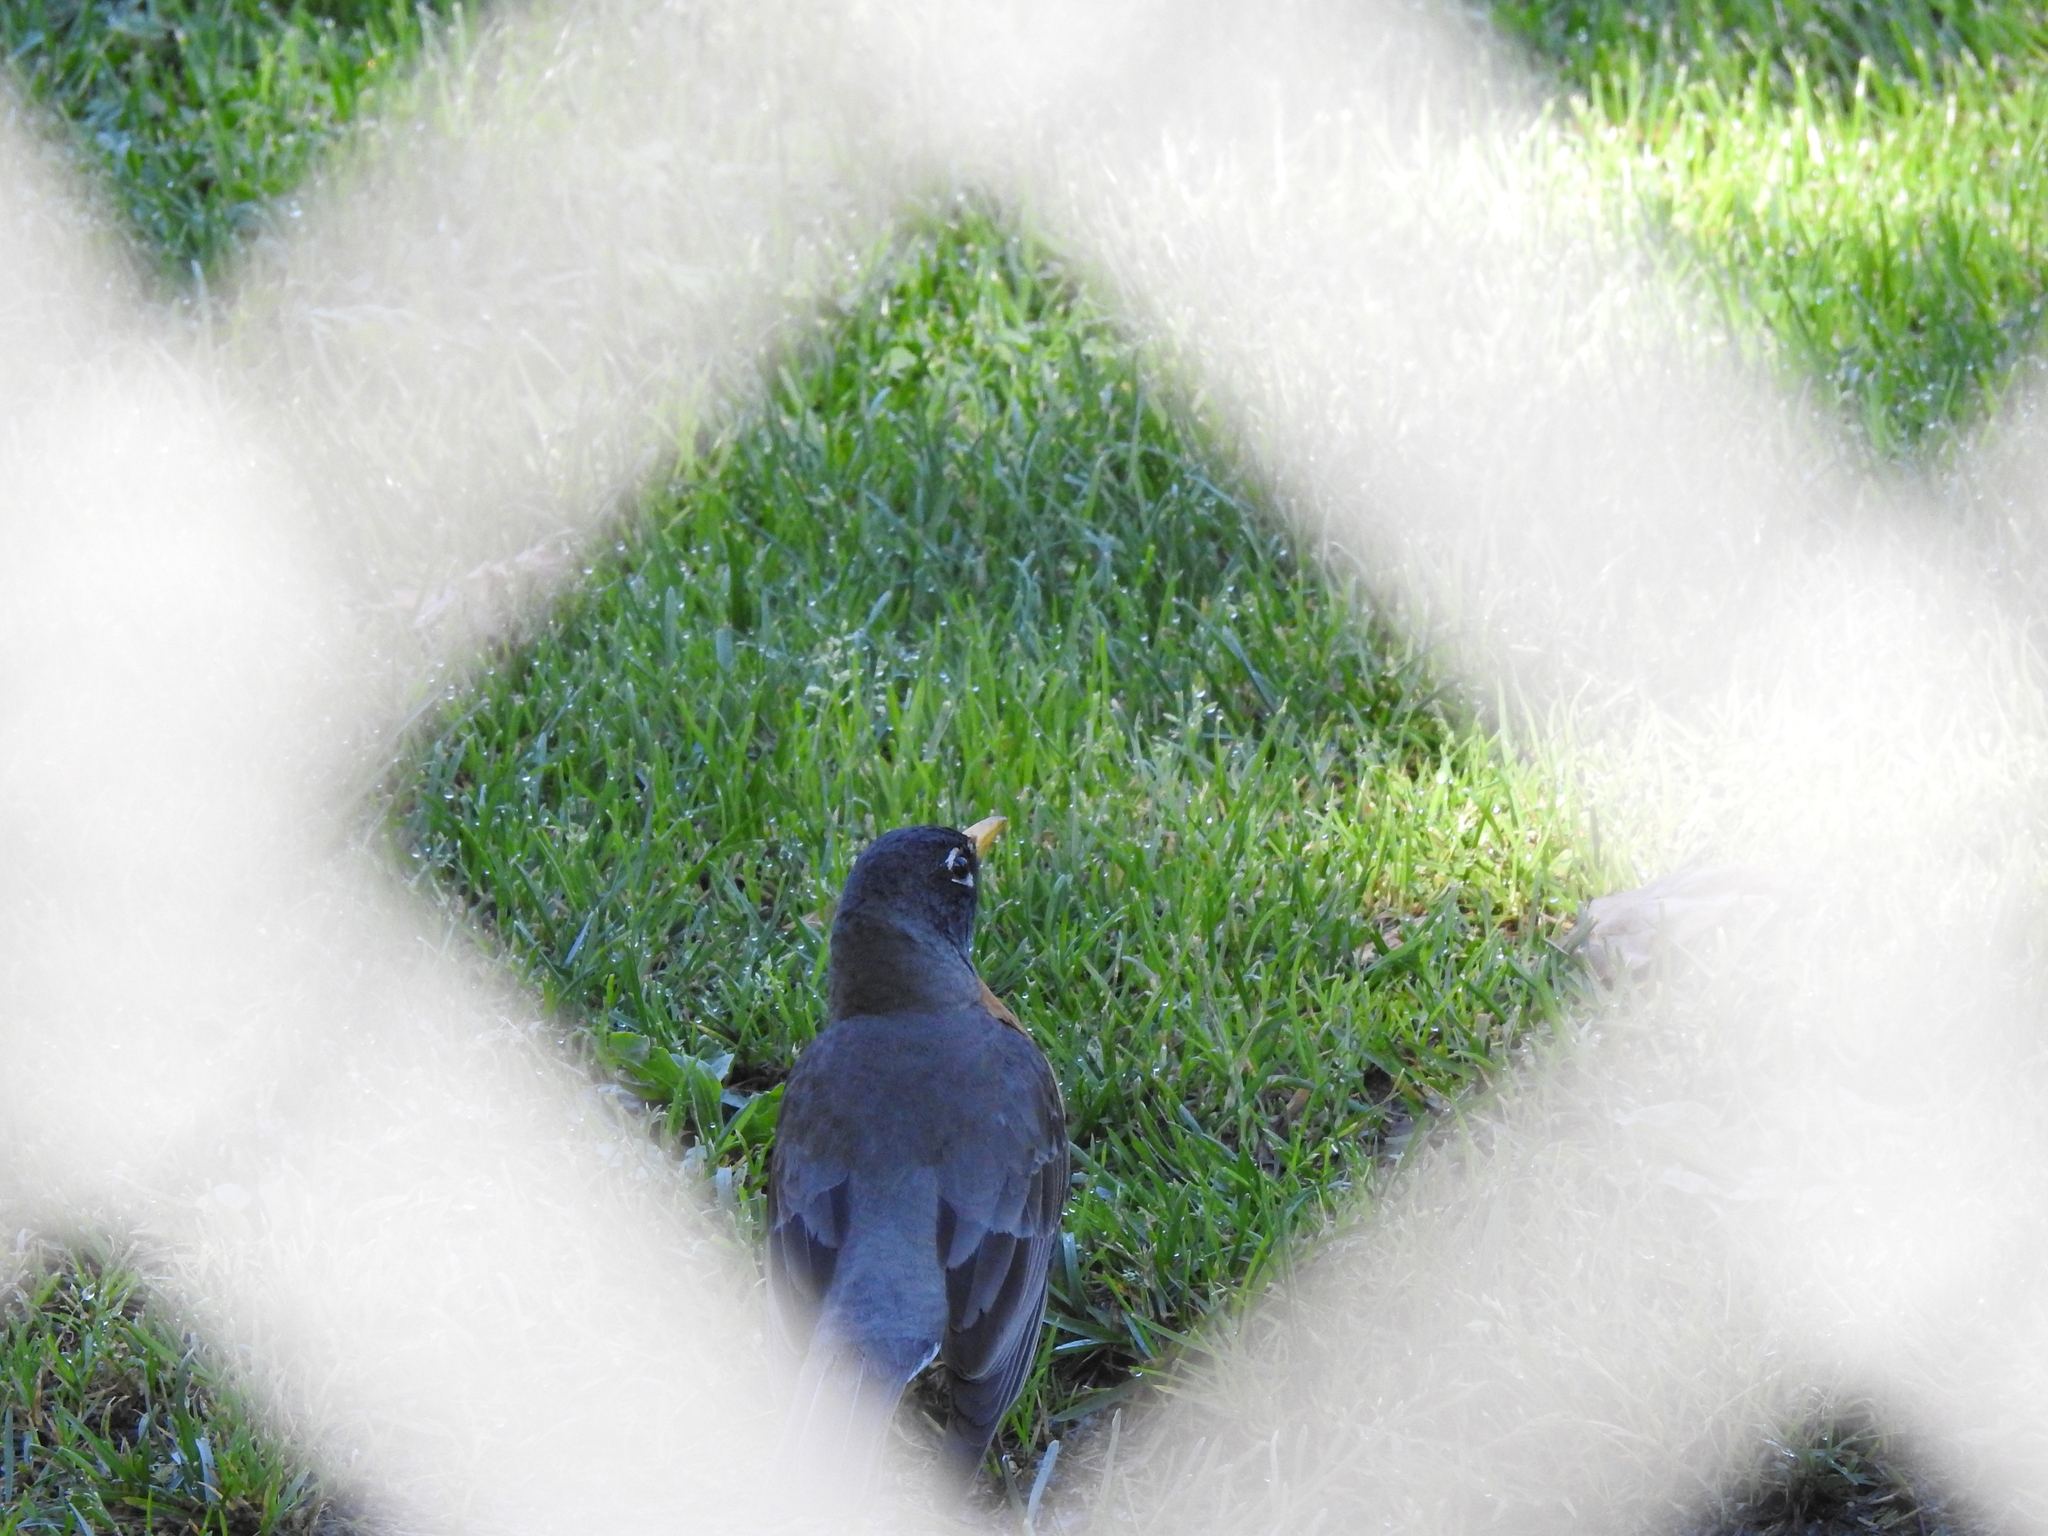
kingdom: Animalia
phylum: Chordata
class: Aves
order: Passeriformes
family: Turdidae
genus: Turdus
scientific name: Turdus migratorius
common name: American robin
